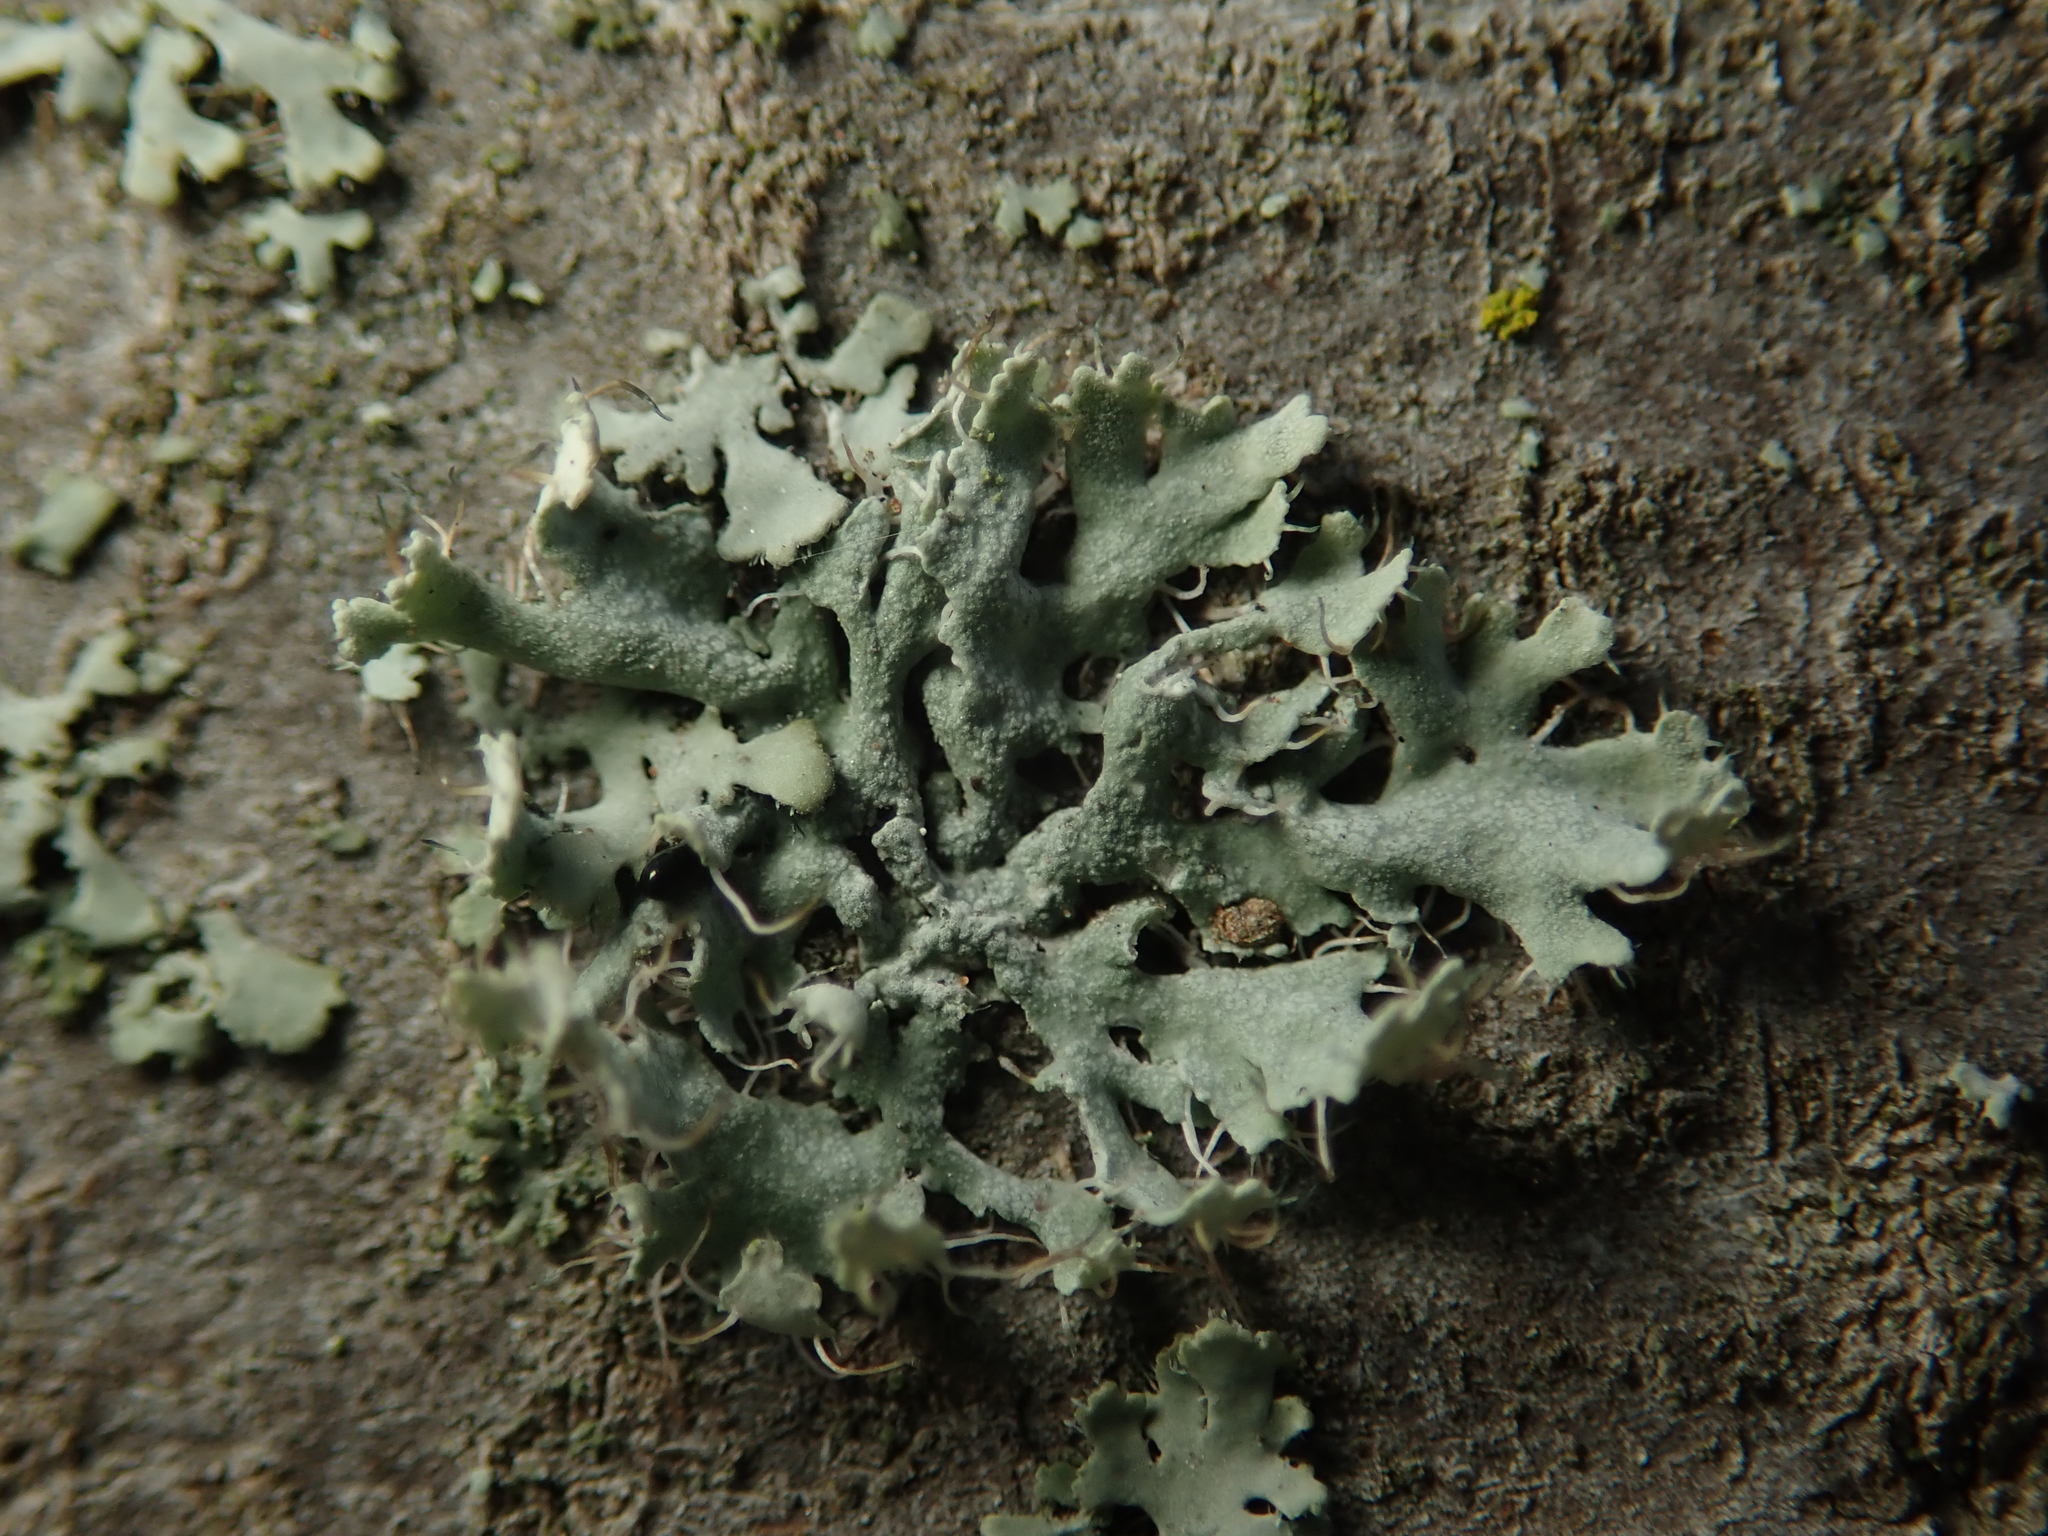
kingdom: Fungi
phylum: Ascomycota
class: Lecanoromycetes
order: Caliciales
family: Physciaceae
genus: Physcia
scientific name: Physcia tenella
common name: Fringed rosette lichen
